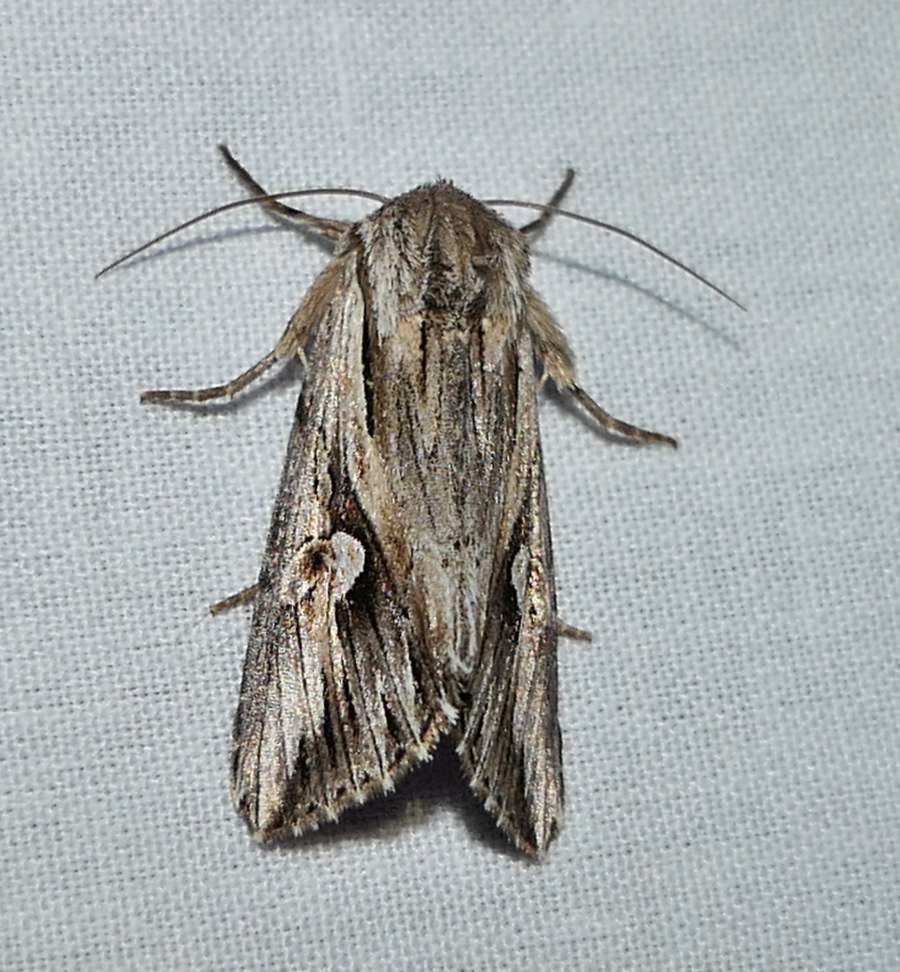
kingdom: Animalia
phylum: Arthropoda
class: Insecta
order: Lepidoptera
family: Noctuidae
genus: Nedra
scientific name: Nedra ramosula
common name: Gray half-spot
